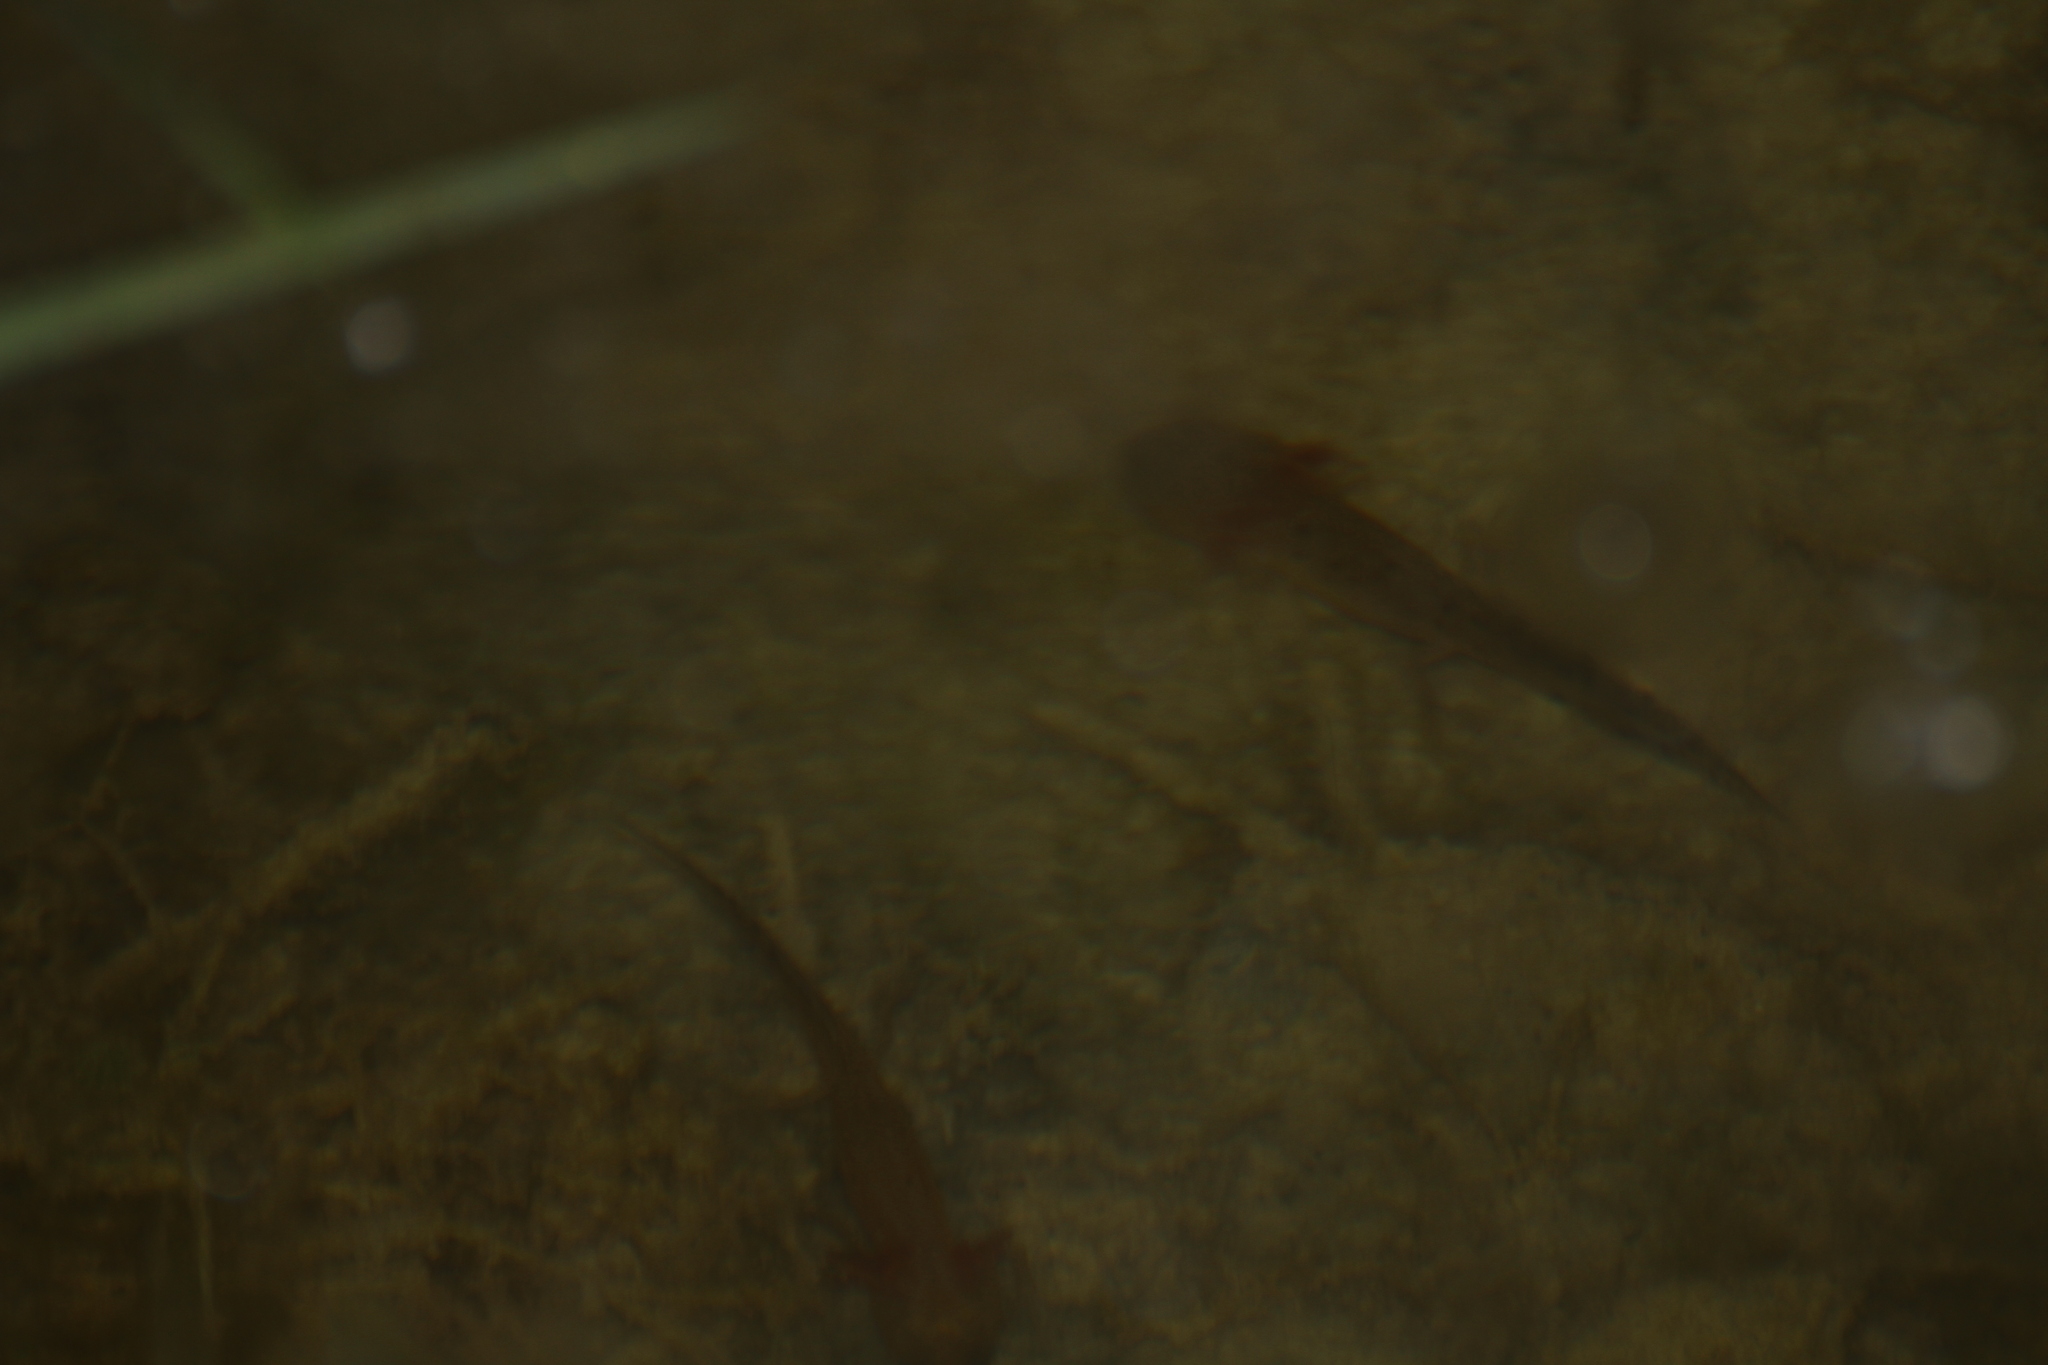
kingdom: Animalia
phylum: Chordata
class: Amphibia
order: Caudata
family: Salamandridae
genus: Triturus
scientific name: Triturus cristatus
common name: Crested newt
